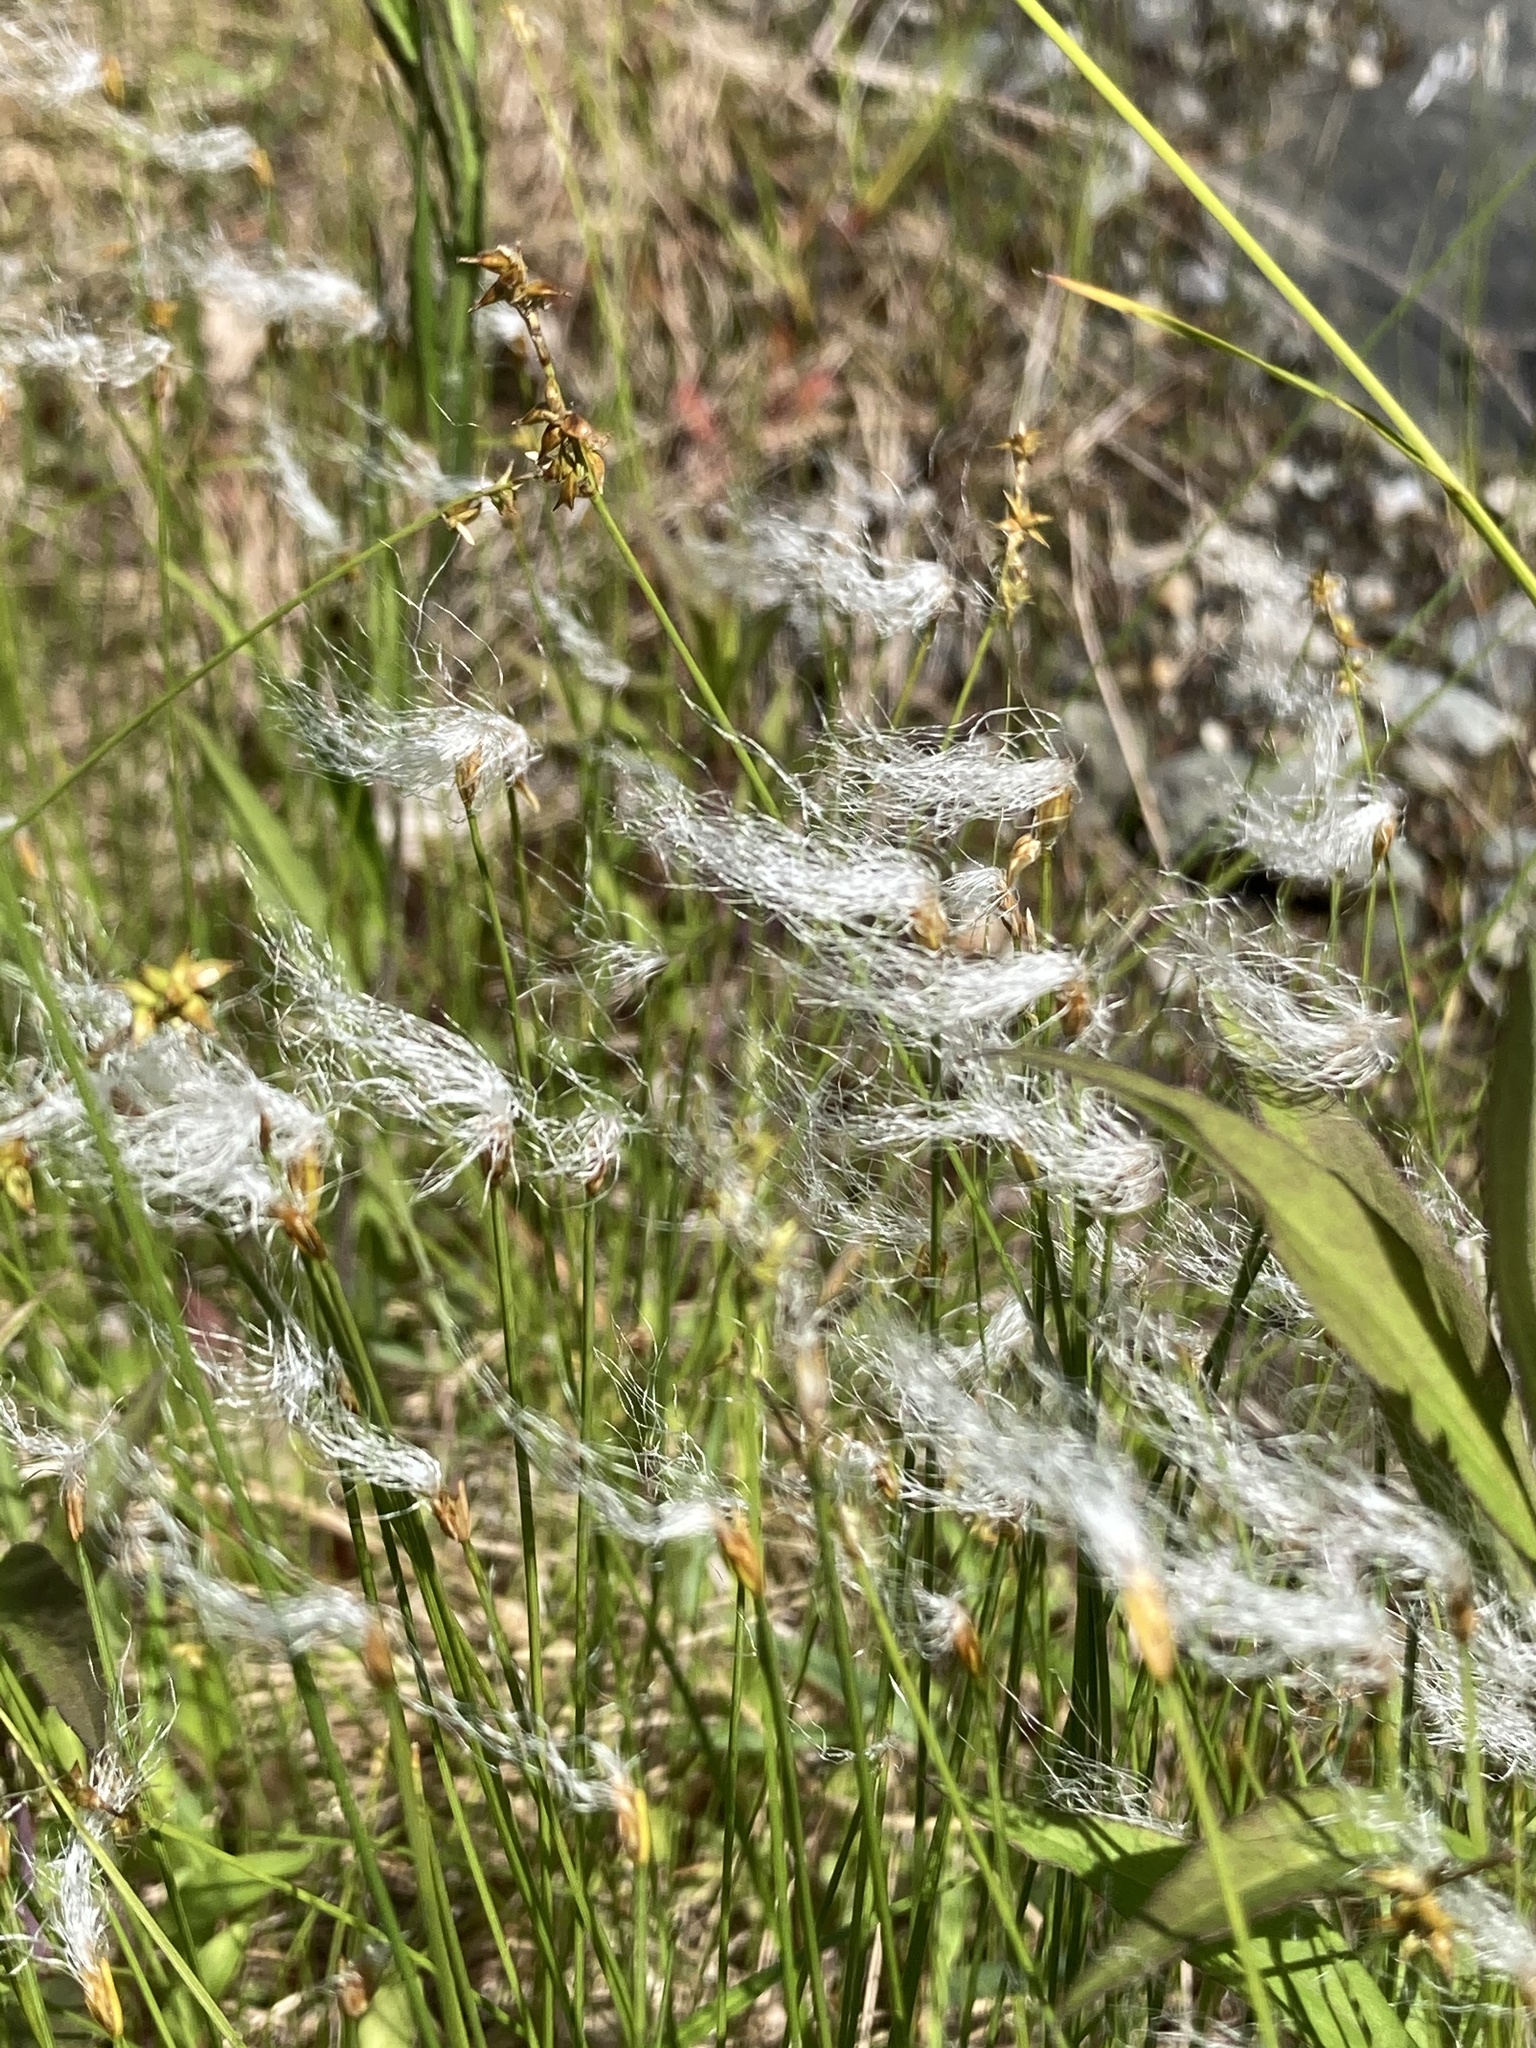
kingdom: Plantae
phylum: Tracheophyta
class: Liliopsida
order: Poales
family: Cyperaceae
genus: Trichophorum
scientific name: Trichophorum alpinum
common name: Alpine bulrush
